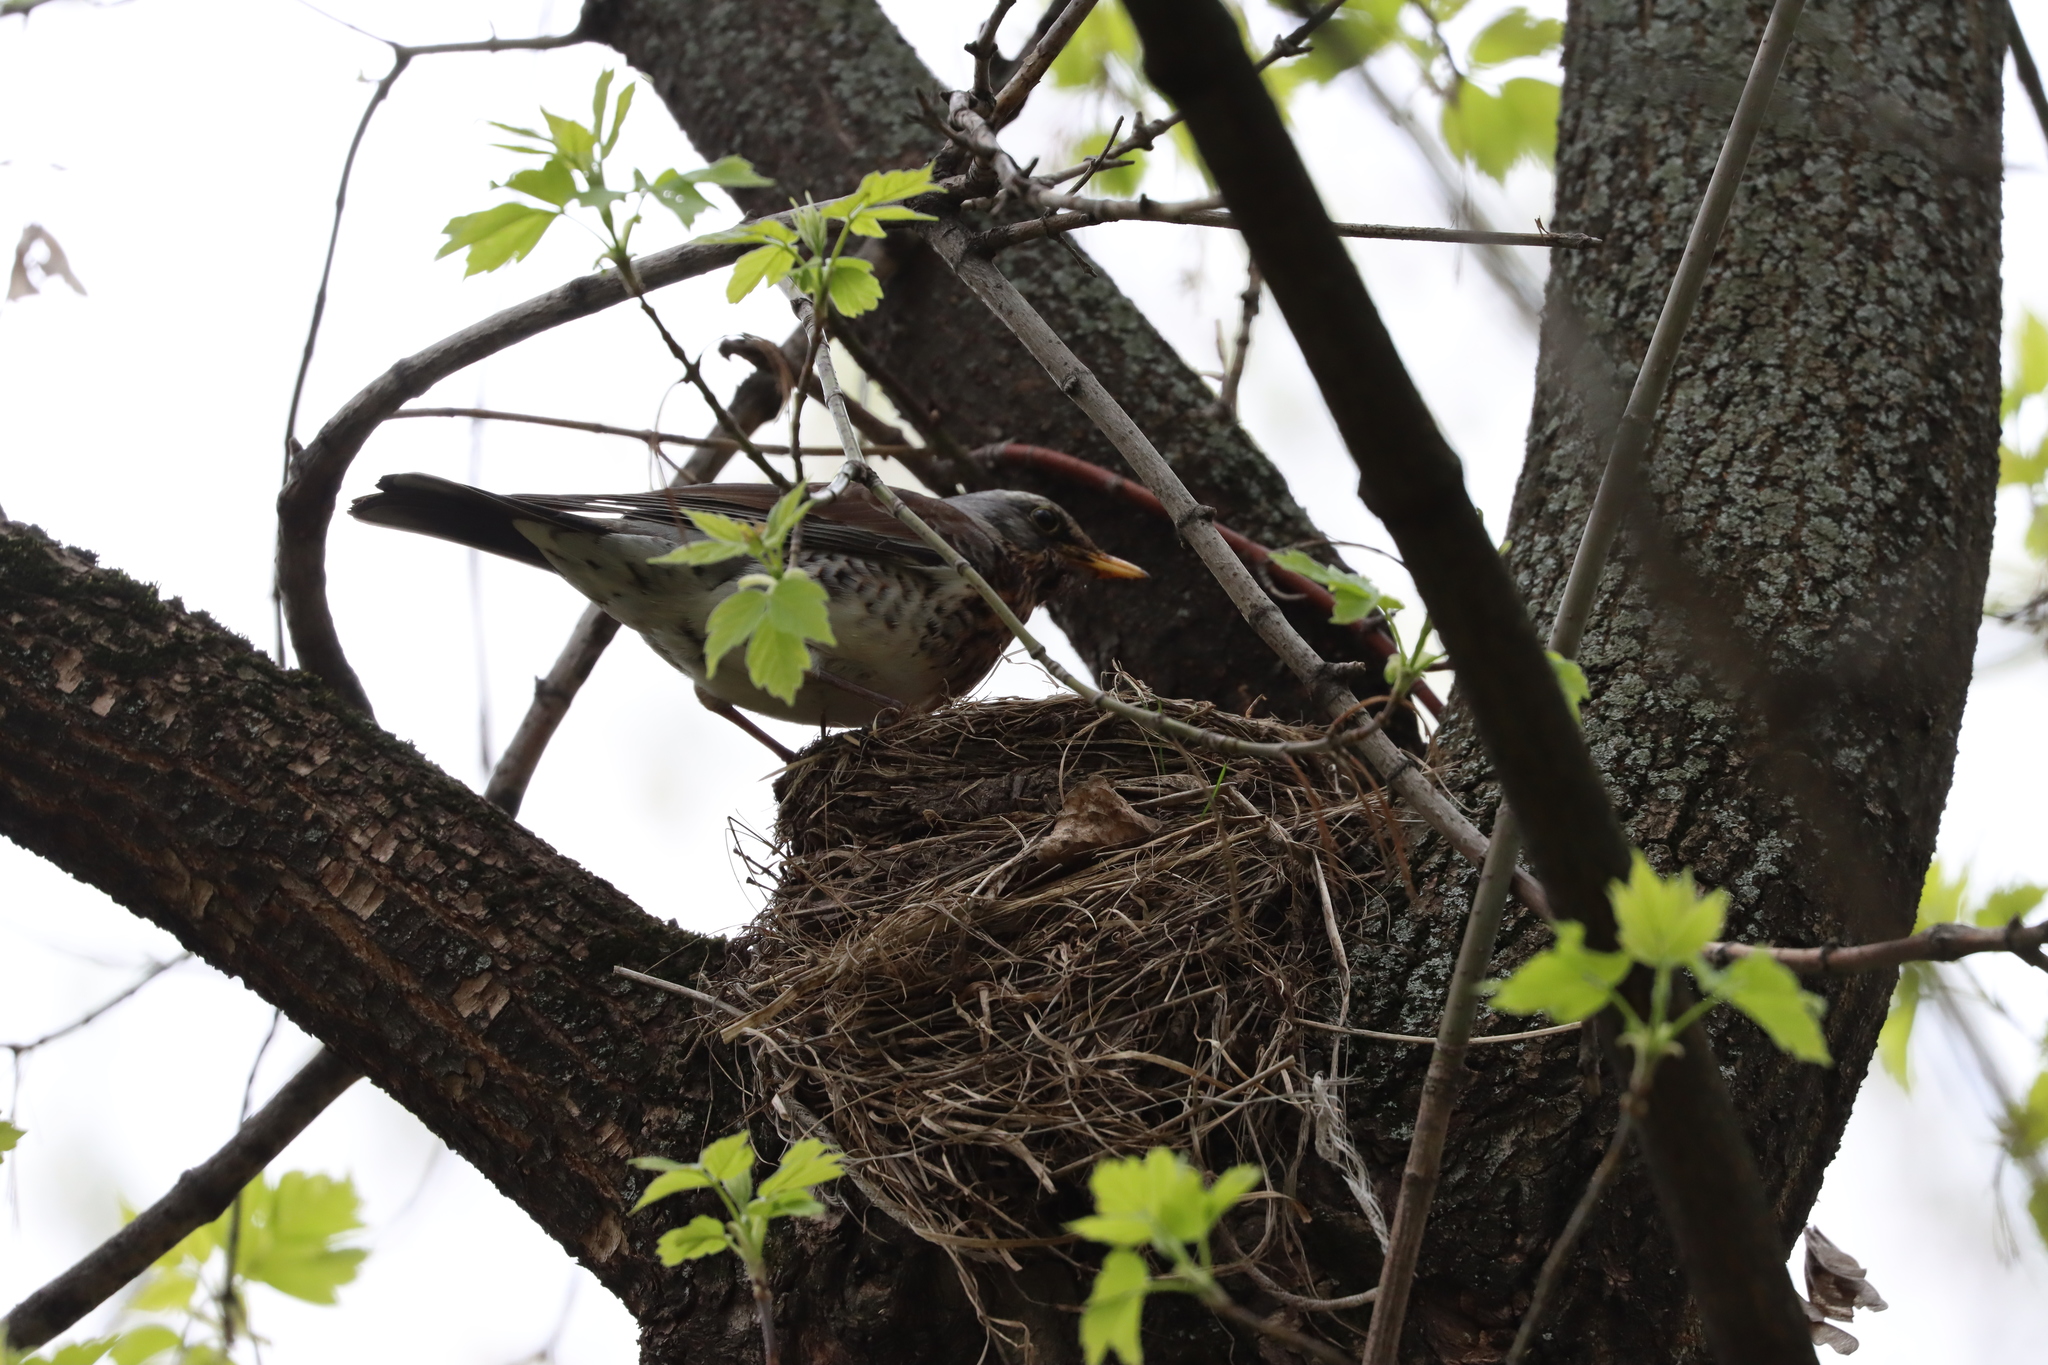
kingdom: Animalia
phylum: Chordata
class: Aves
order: Passeriformes
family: Turdidae
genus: Turdus
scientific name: Turdus pilaris
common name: Fieldfare
